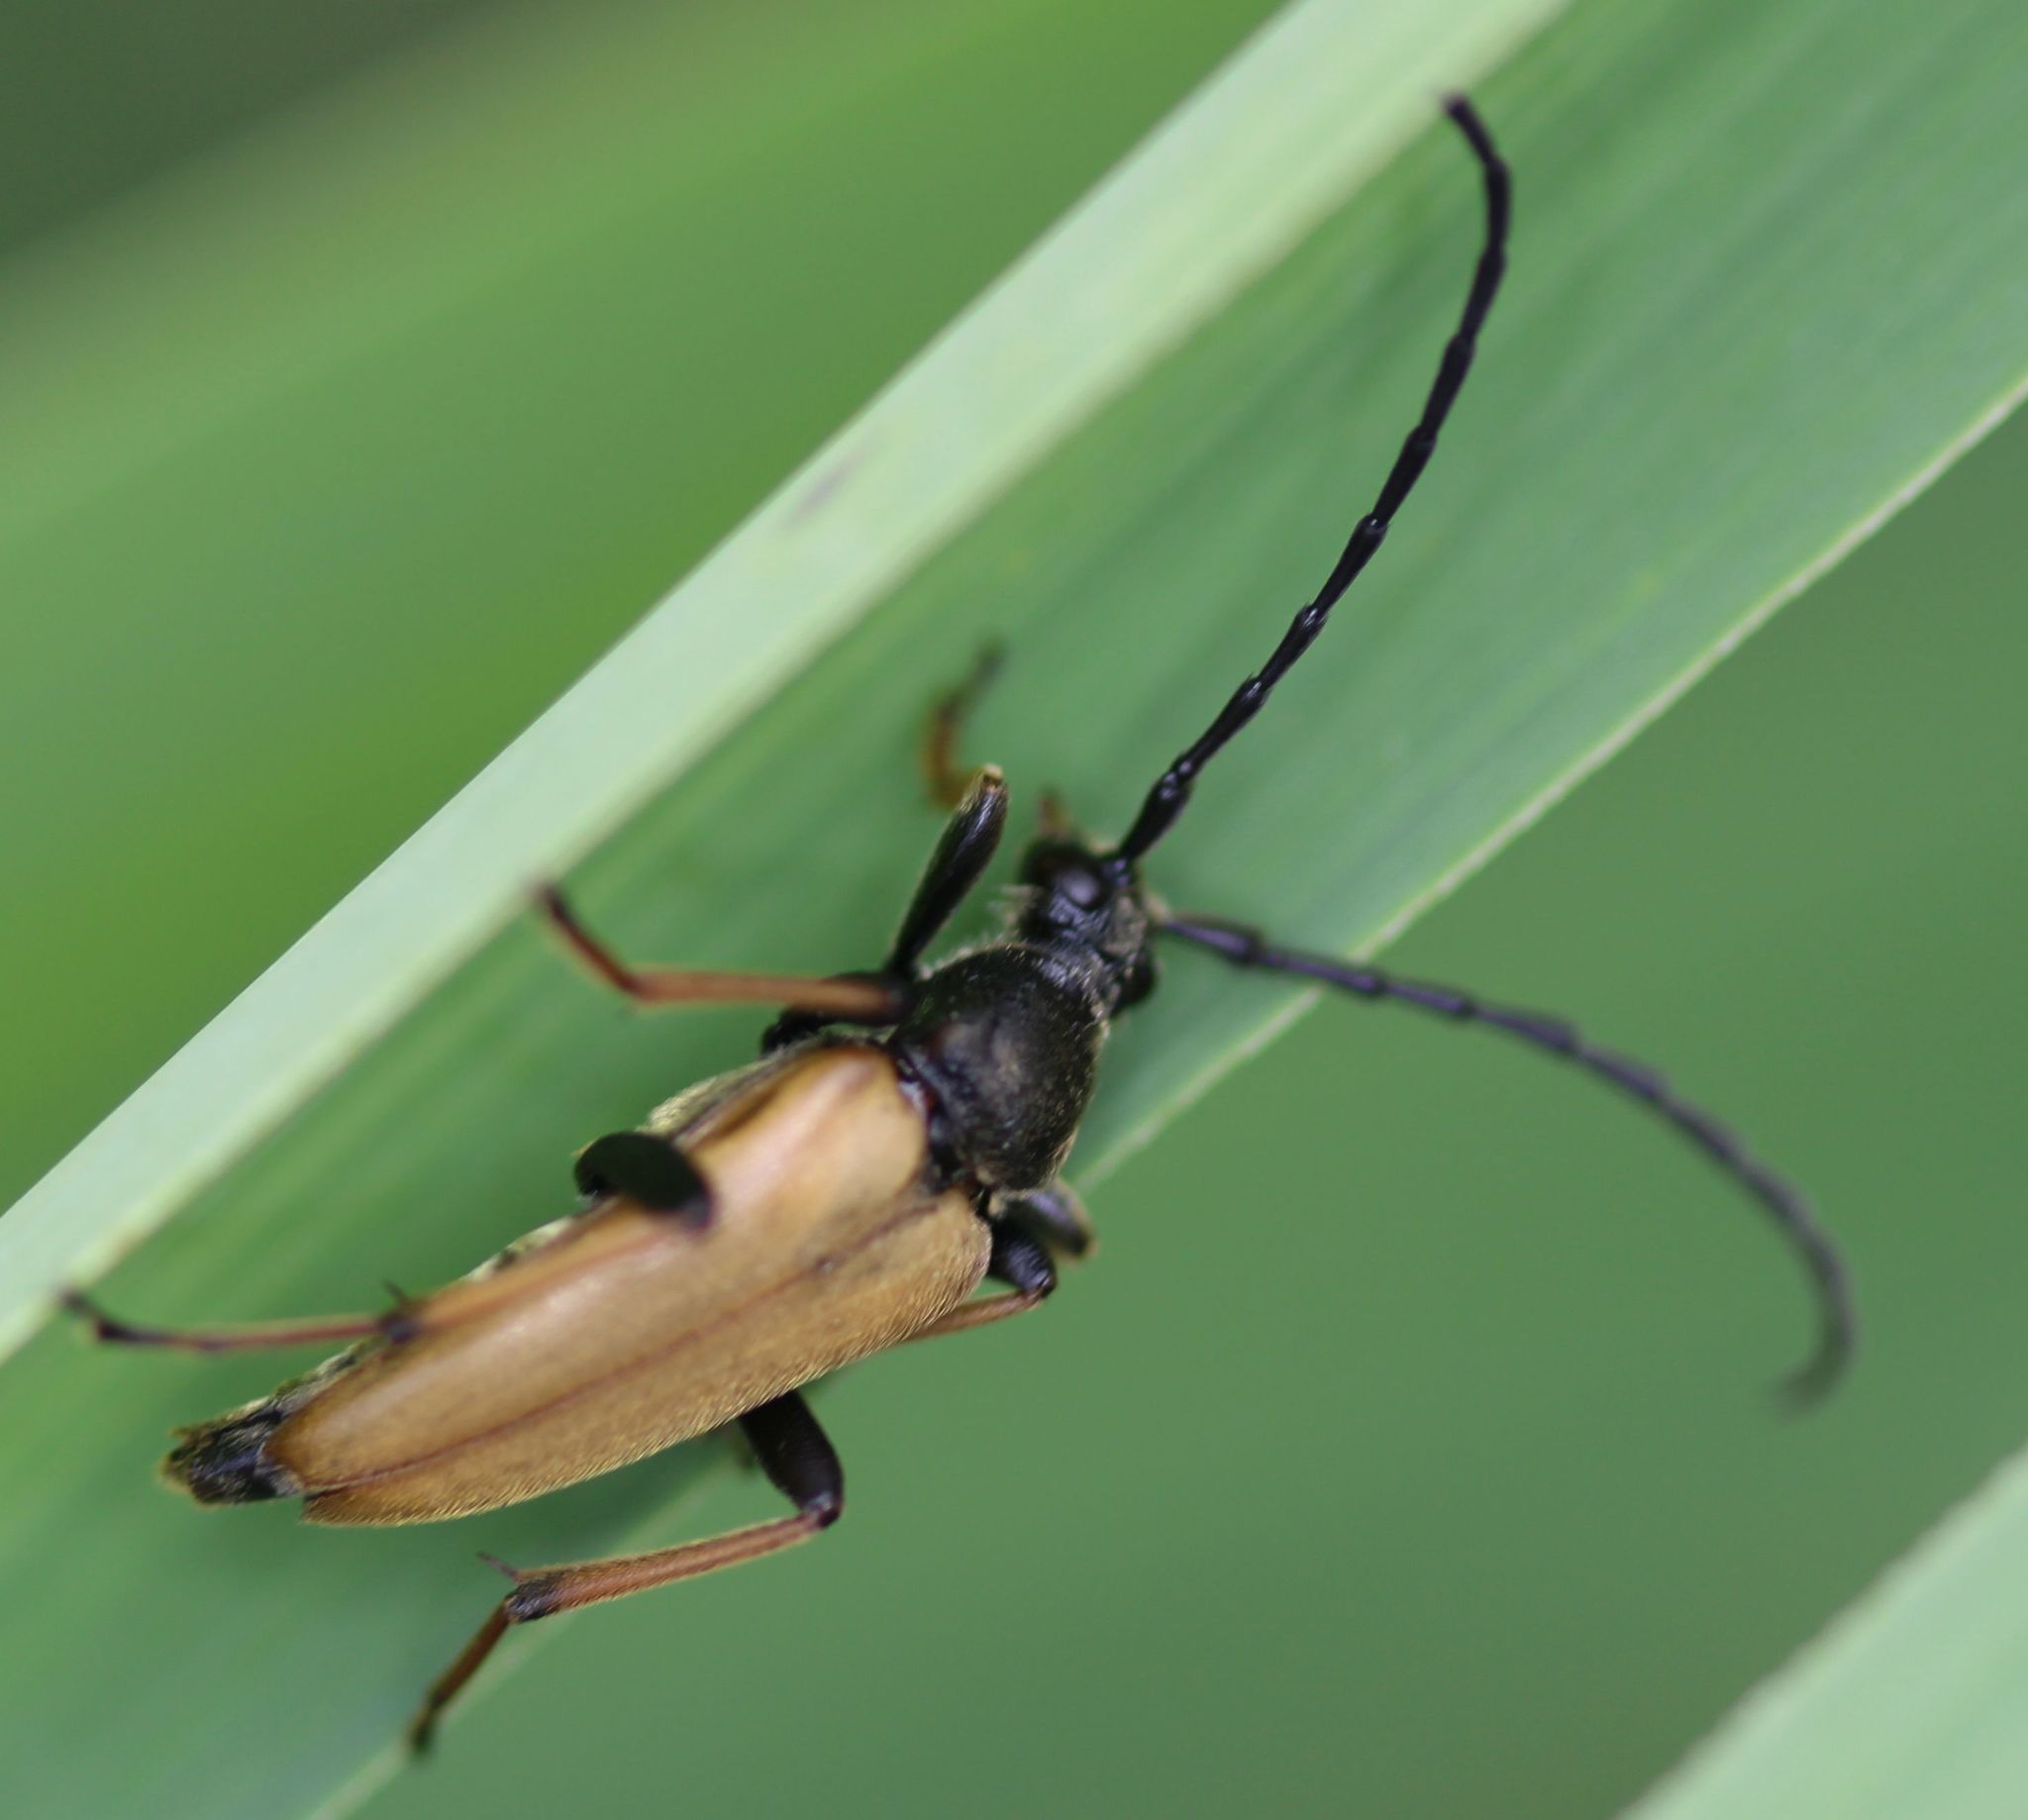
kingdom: Animalia
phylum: Arthropoda
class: Insecta
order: Coleoptera
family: Cerambycidae
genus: Stictoleptura
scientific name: Stictoleptura rubra
